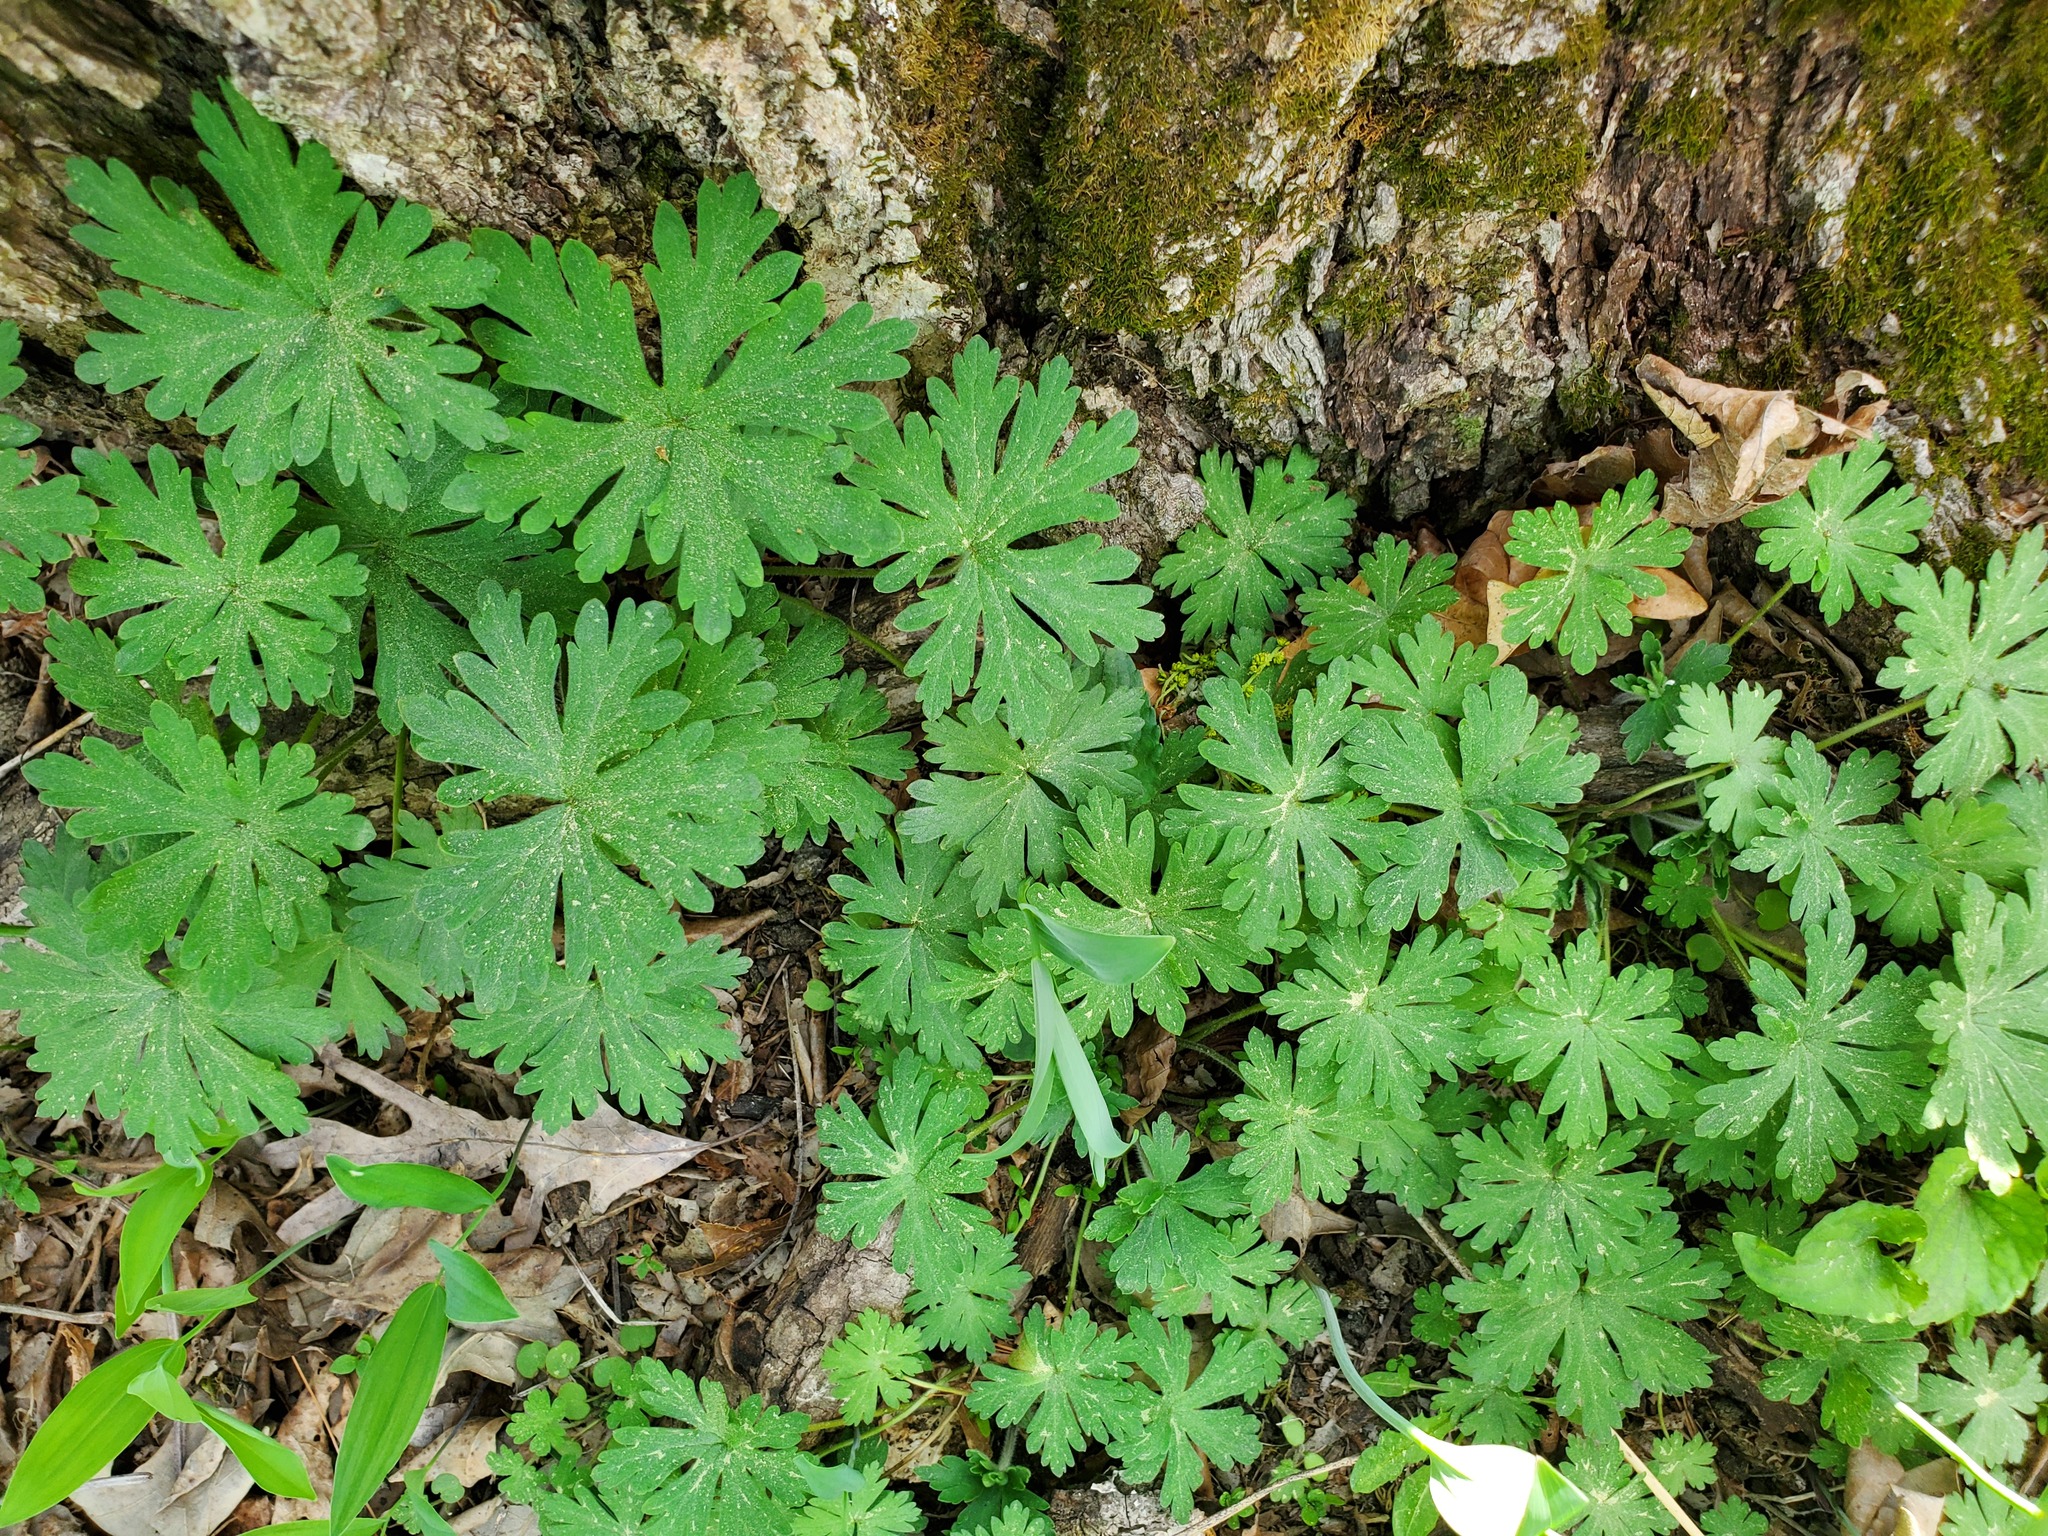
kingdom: Plantae
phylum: Tracheophyta
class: Magnoliopsida
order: Geraniales
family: Geraniaceae
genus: Geranium
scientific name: Geranium maculatum
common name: Spotted geranium
